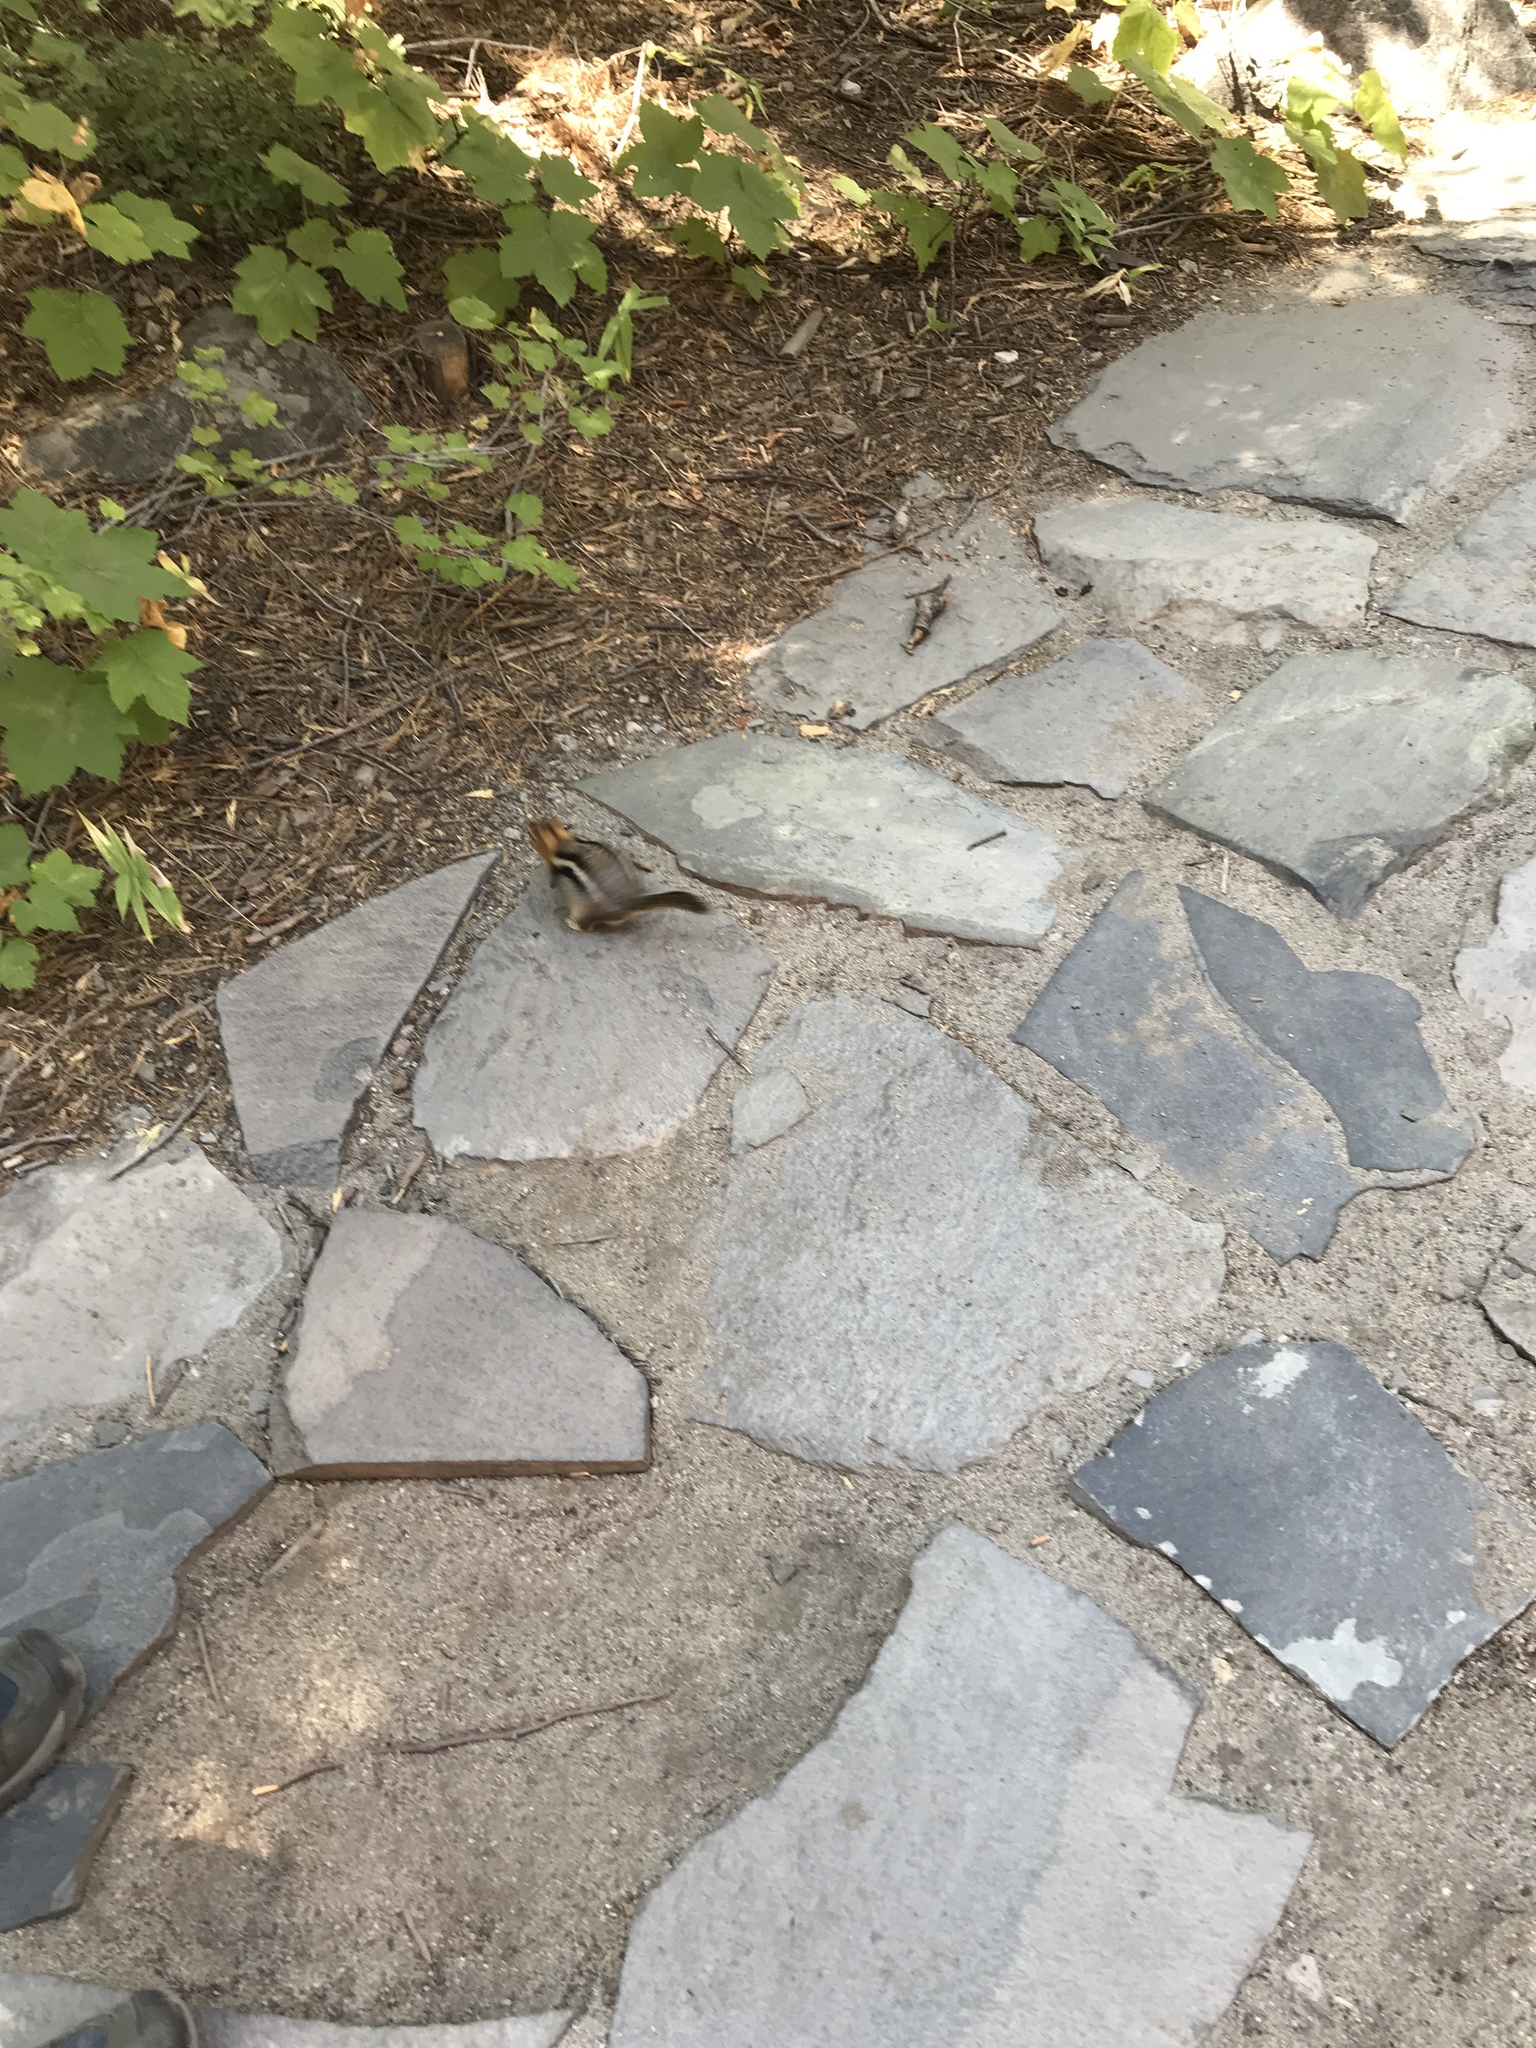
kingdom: Animalia
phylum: Chordata
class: Mammalia
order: Rodentia
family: Sciuridae
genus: Callospermophilus
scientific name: Callospermophilus lateralis
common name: Golden-mantled ground squirrel
